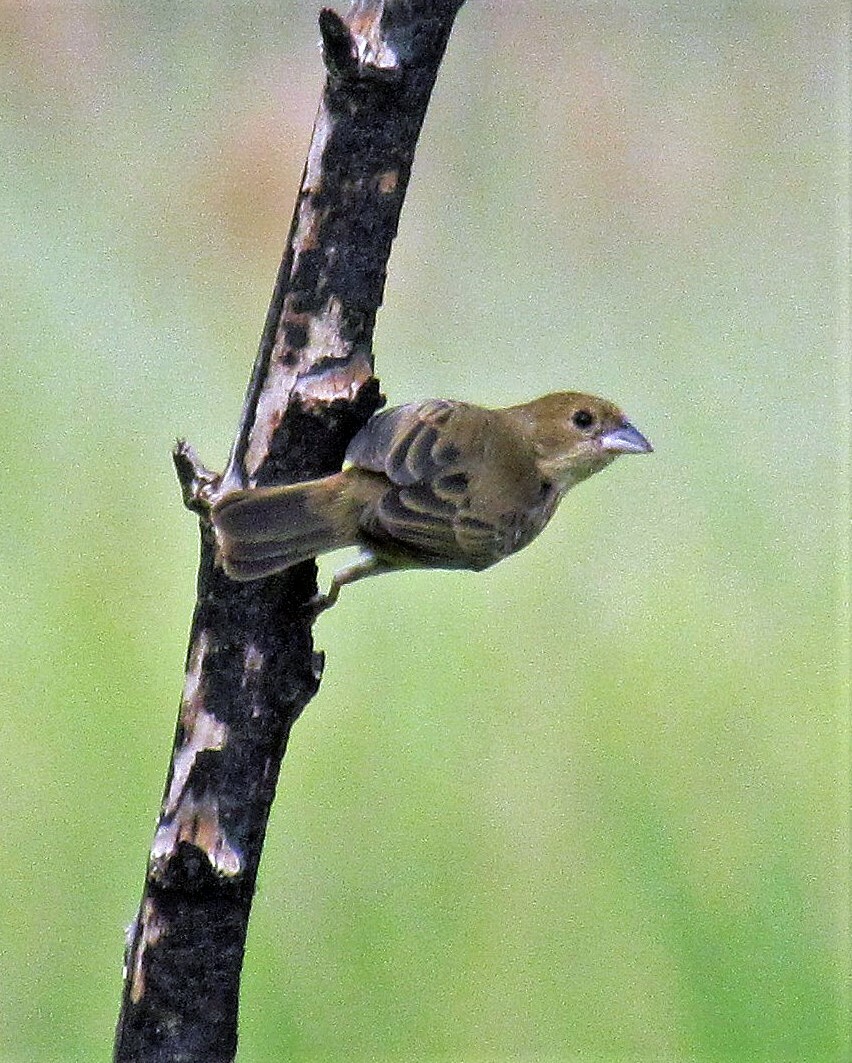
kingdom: Animalia
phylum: Chordata
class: Aves
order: Passeriformes
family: Thraupidae
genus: Volatinia
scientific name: Volatinia jacarina
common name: Blue-black grassquit
